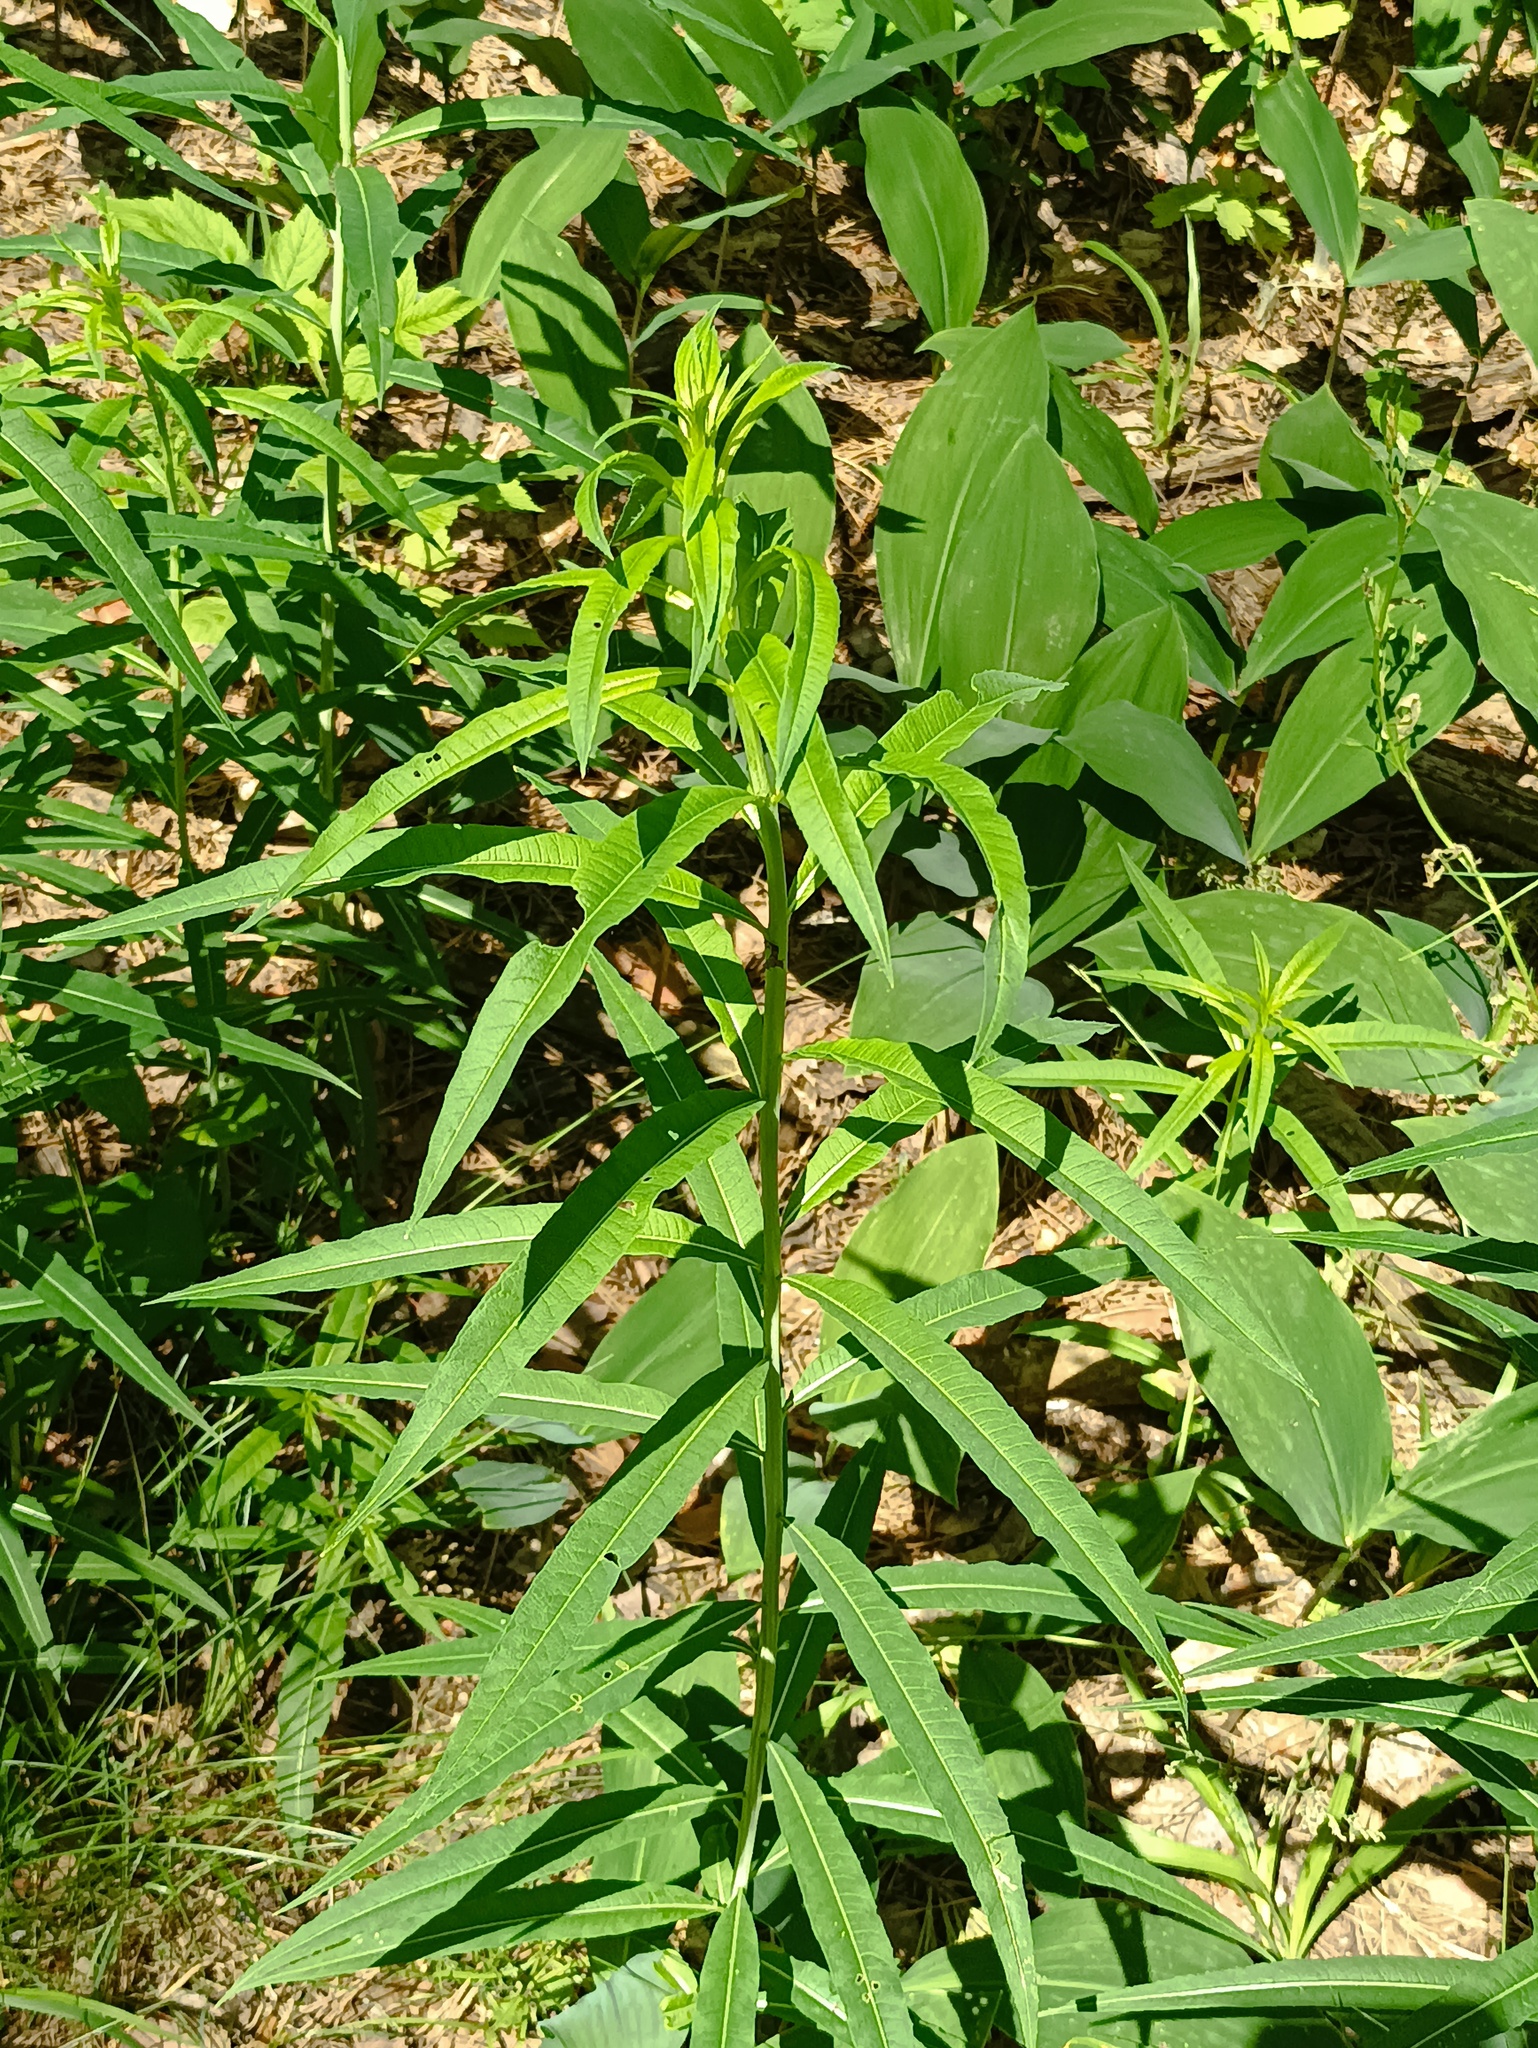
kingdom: Plantae
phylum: Tracheophyta
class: Magnoliopsida
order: Myrtales
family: Onagraceae
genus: Chamaenerion
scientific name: Chamaenerion angustifolium
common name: Fireweed
